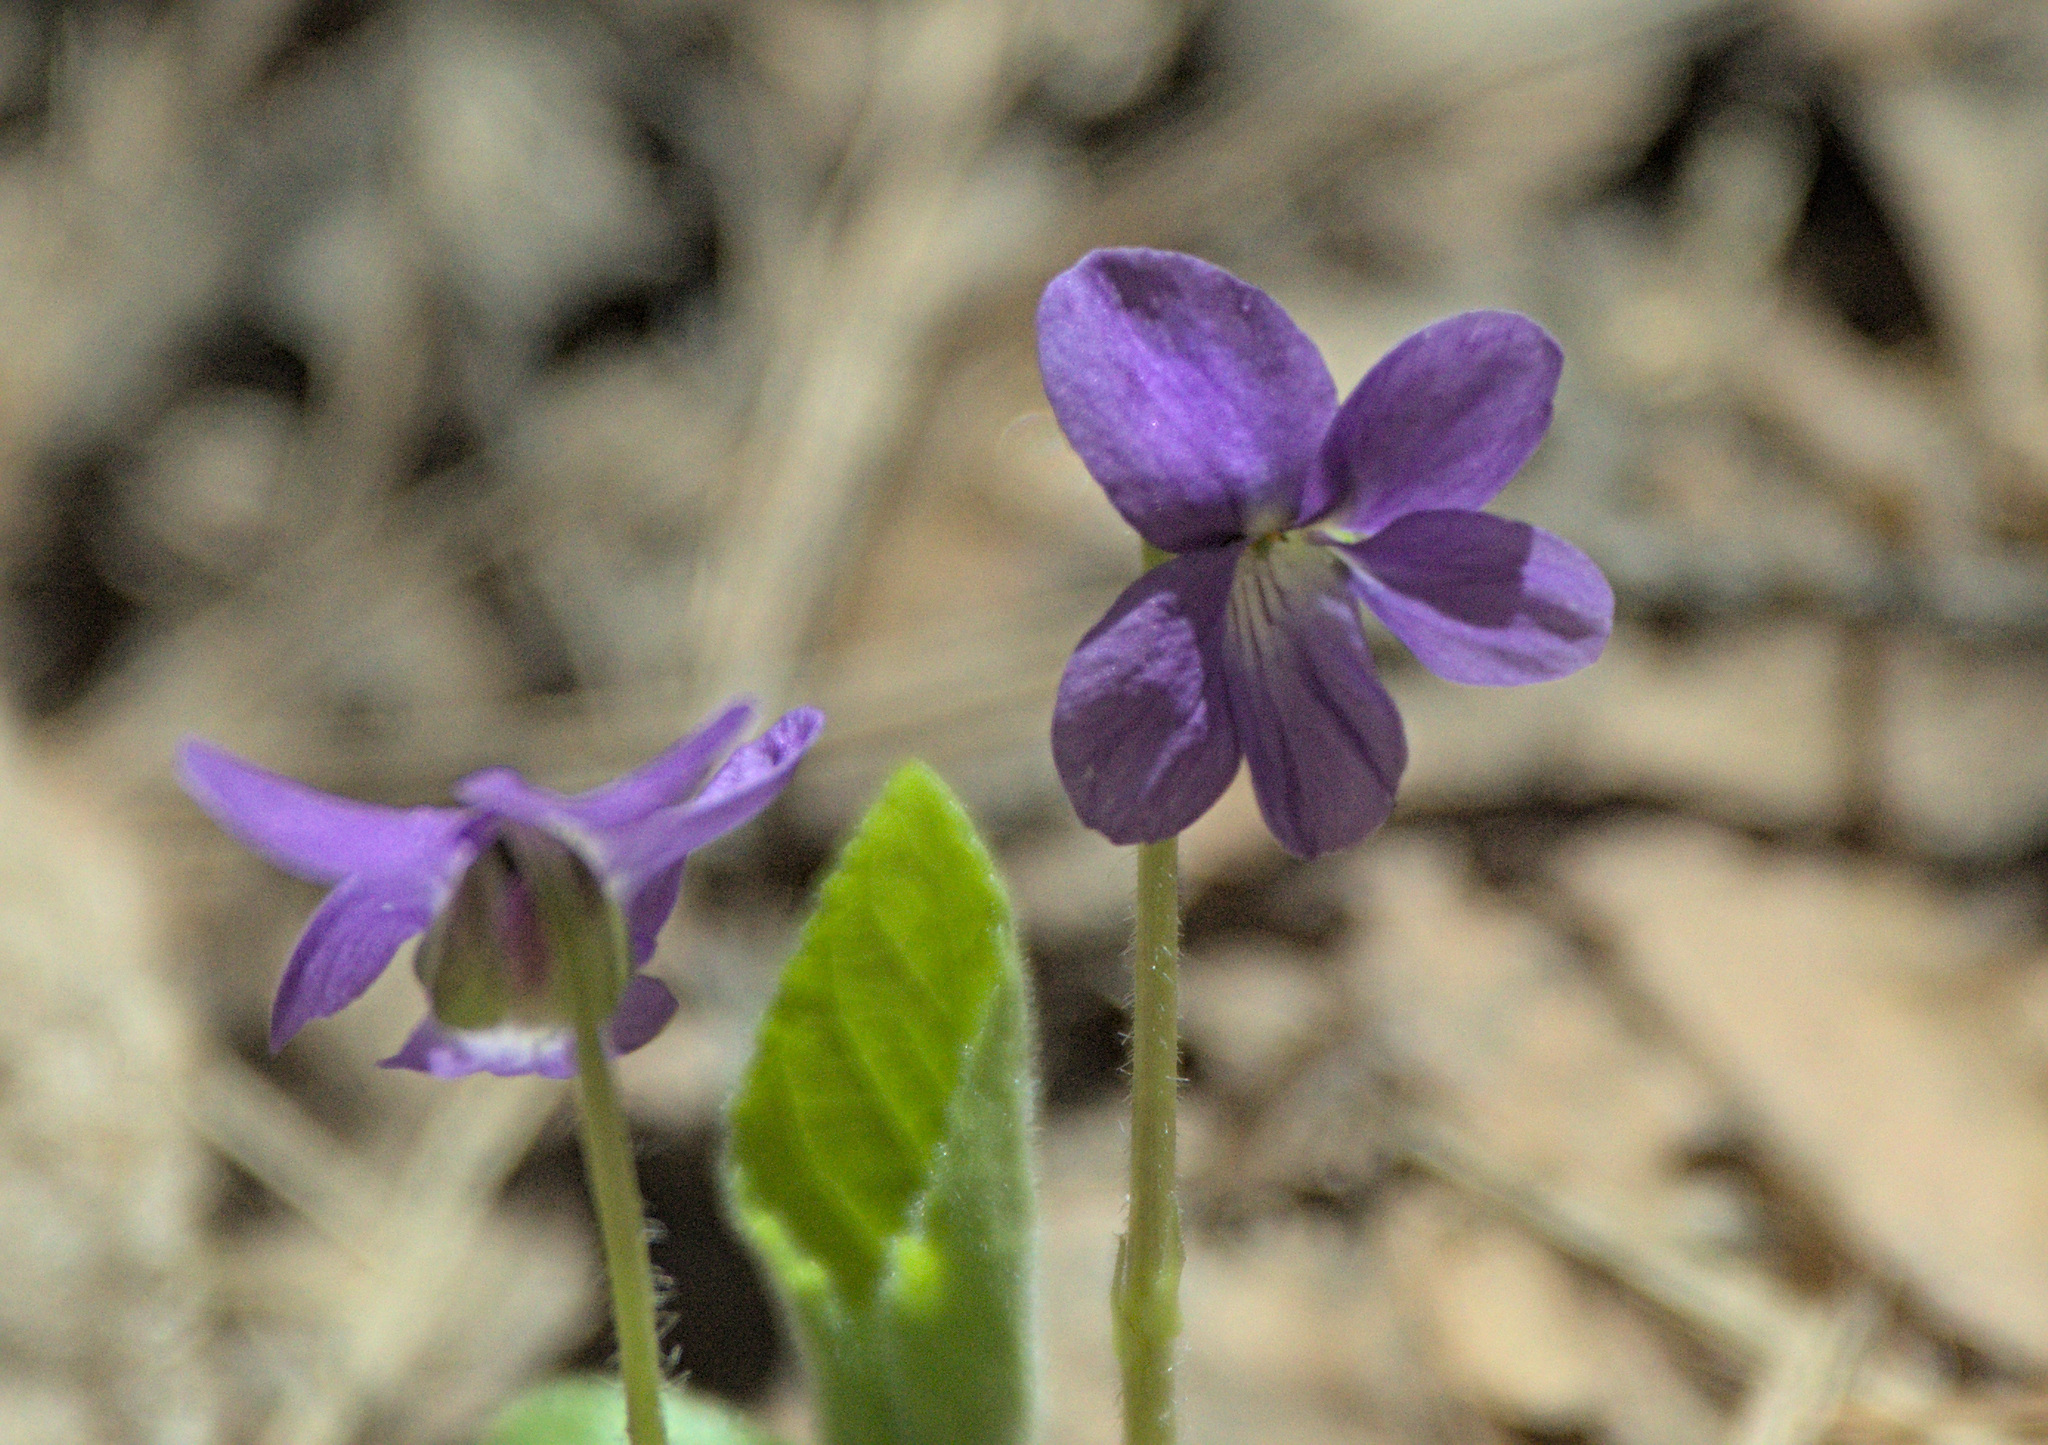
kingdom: Plantae
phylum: Tracheophyta
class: Magnoliopsida
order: Malpighiales
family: Violaceae
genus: Viola
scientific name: Viola hirta
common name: Hairy violet
